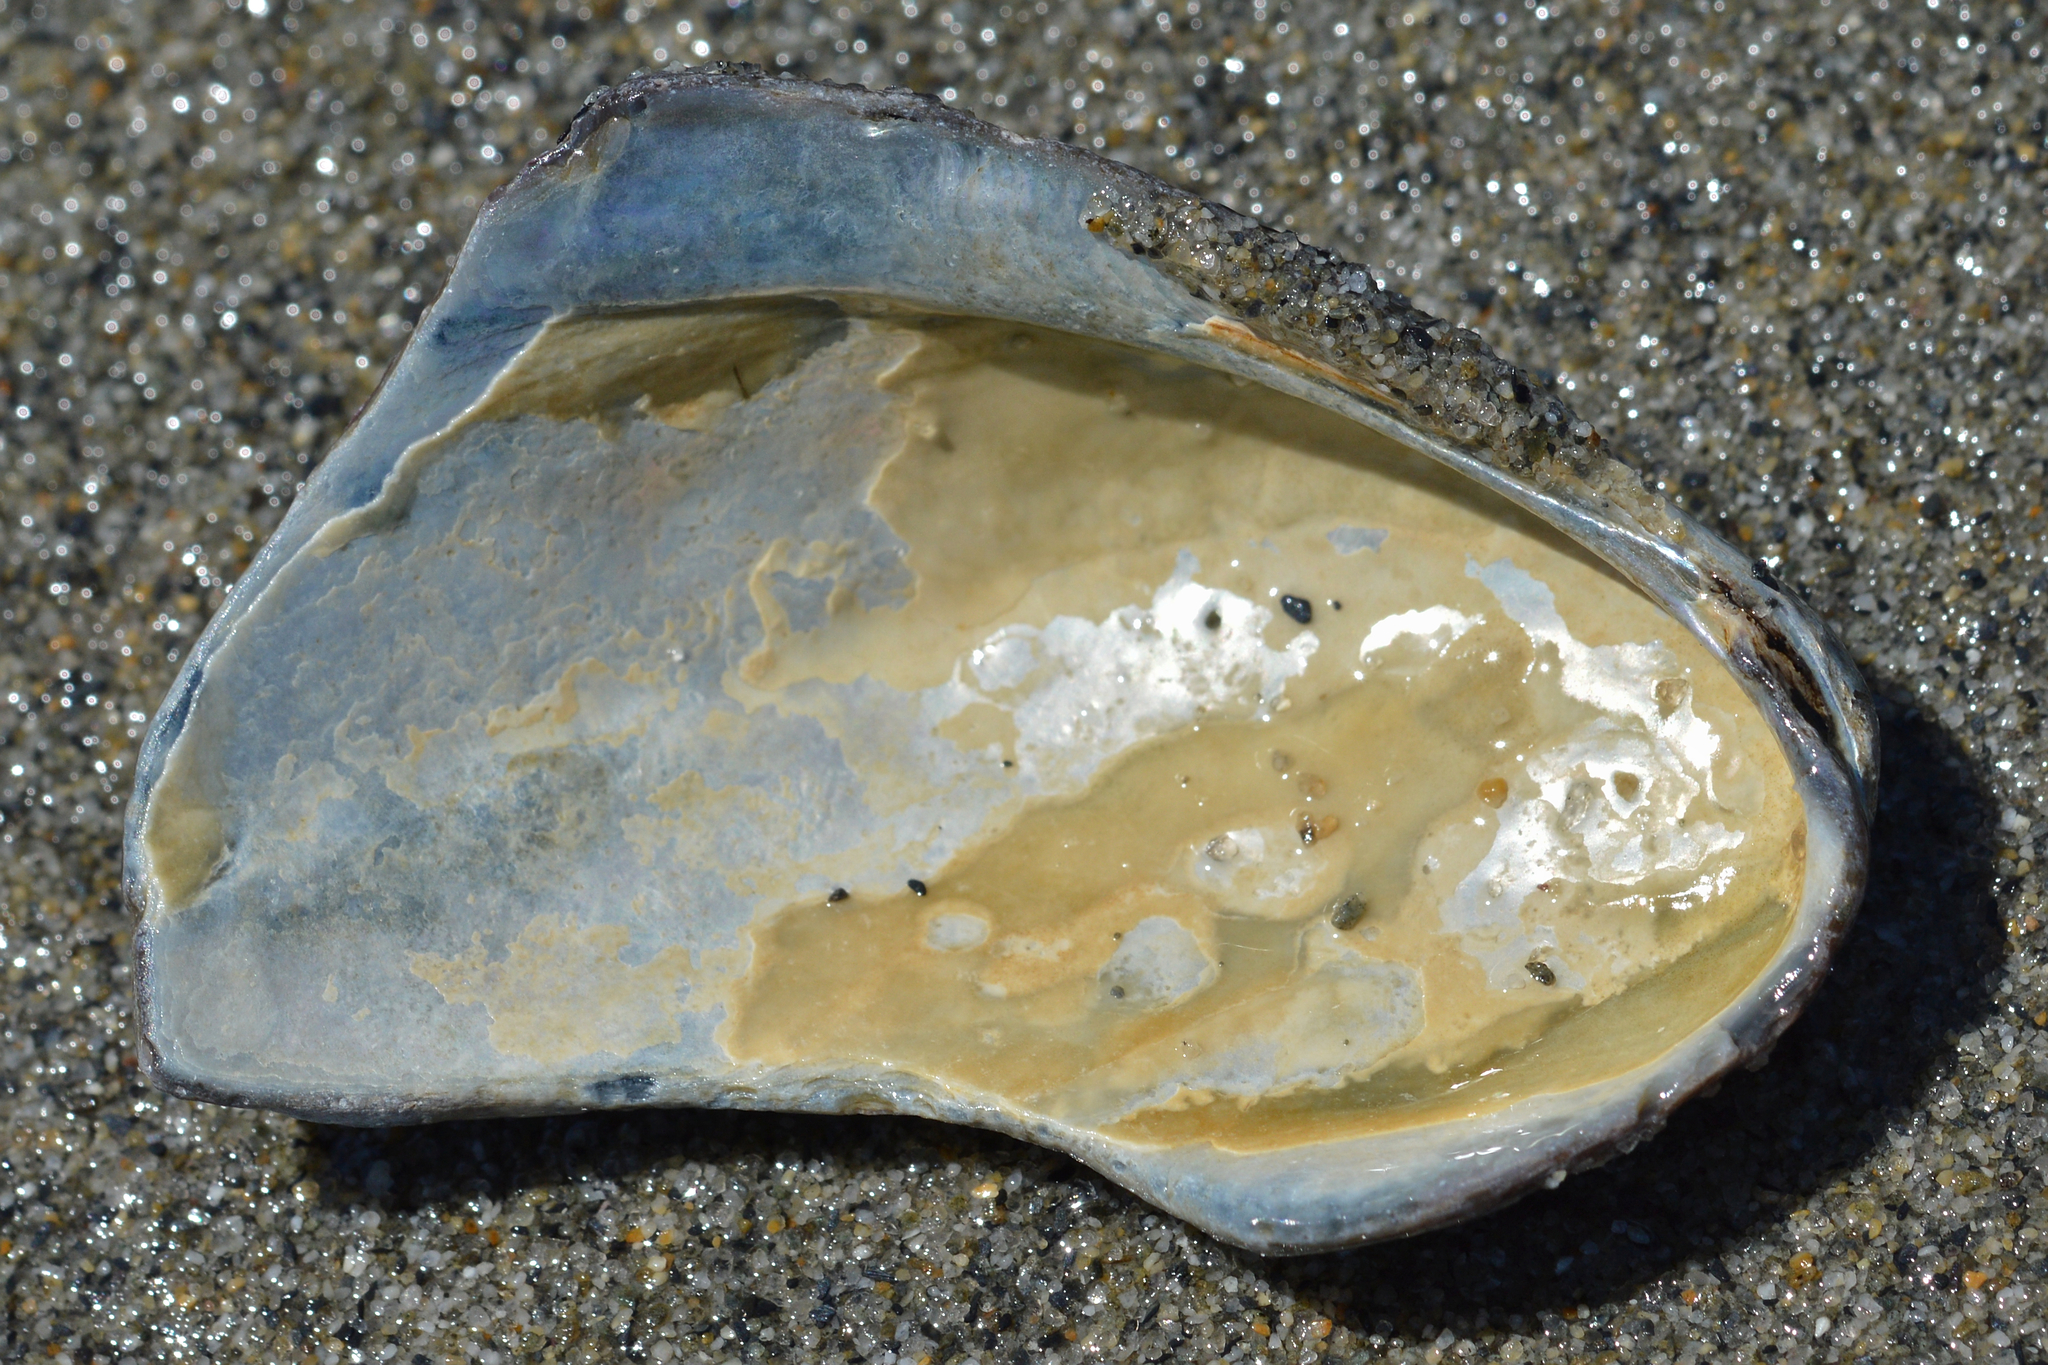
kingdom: Animalia
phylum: Mollusca
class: Bivalvia
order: Mytilida
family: Mytilidae
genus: Modiolus
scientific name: Modiolus modiolus
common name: Horse-mussel
